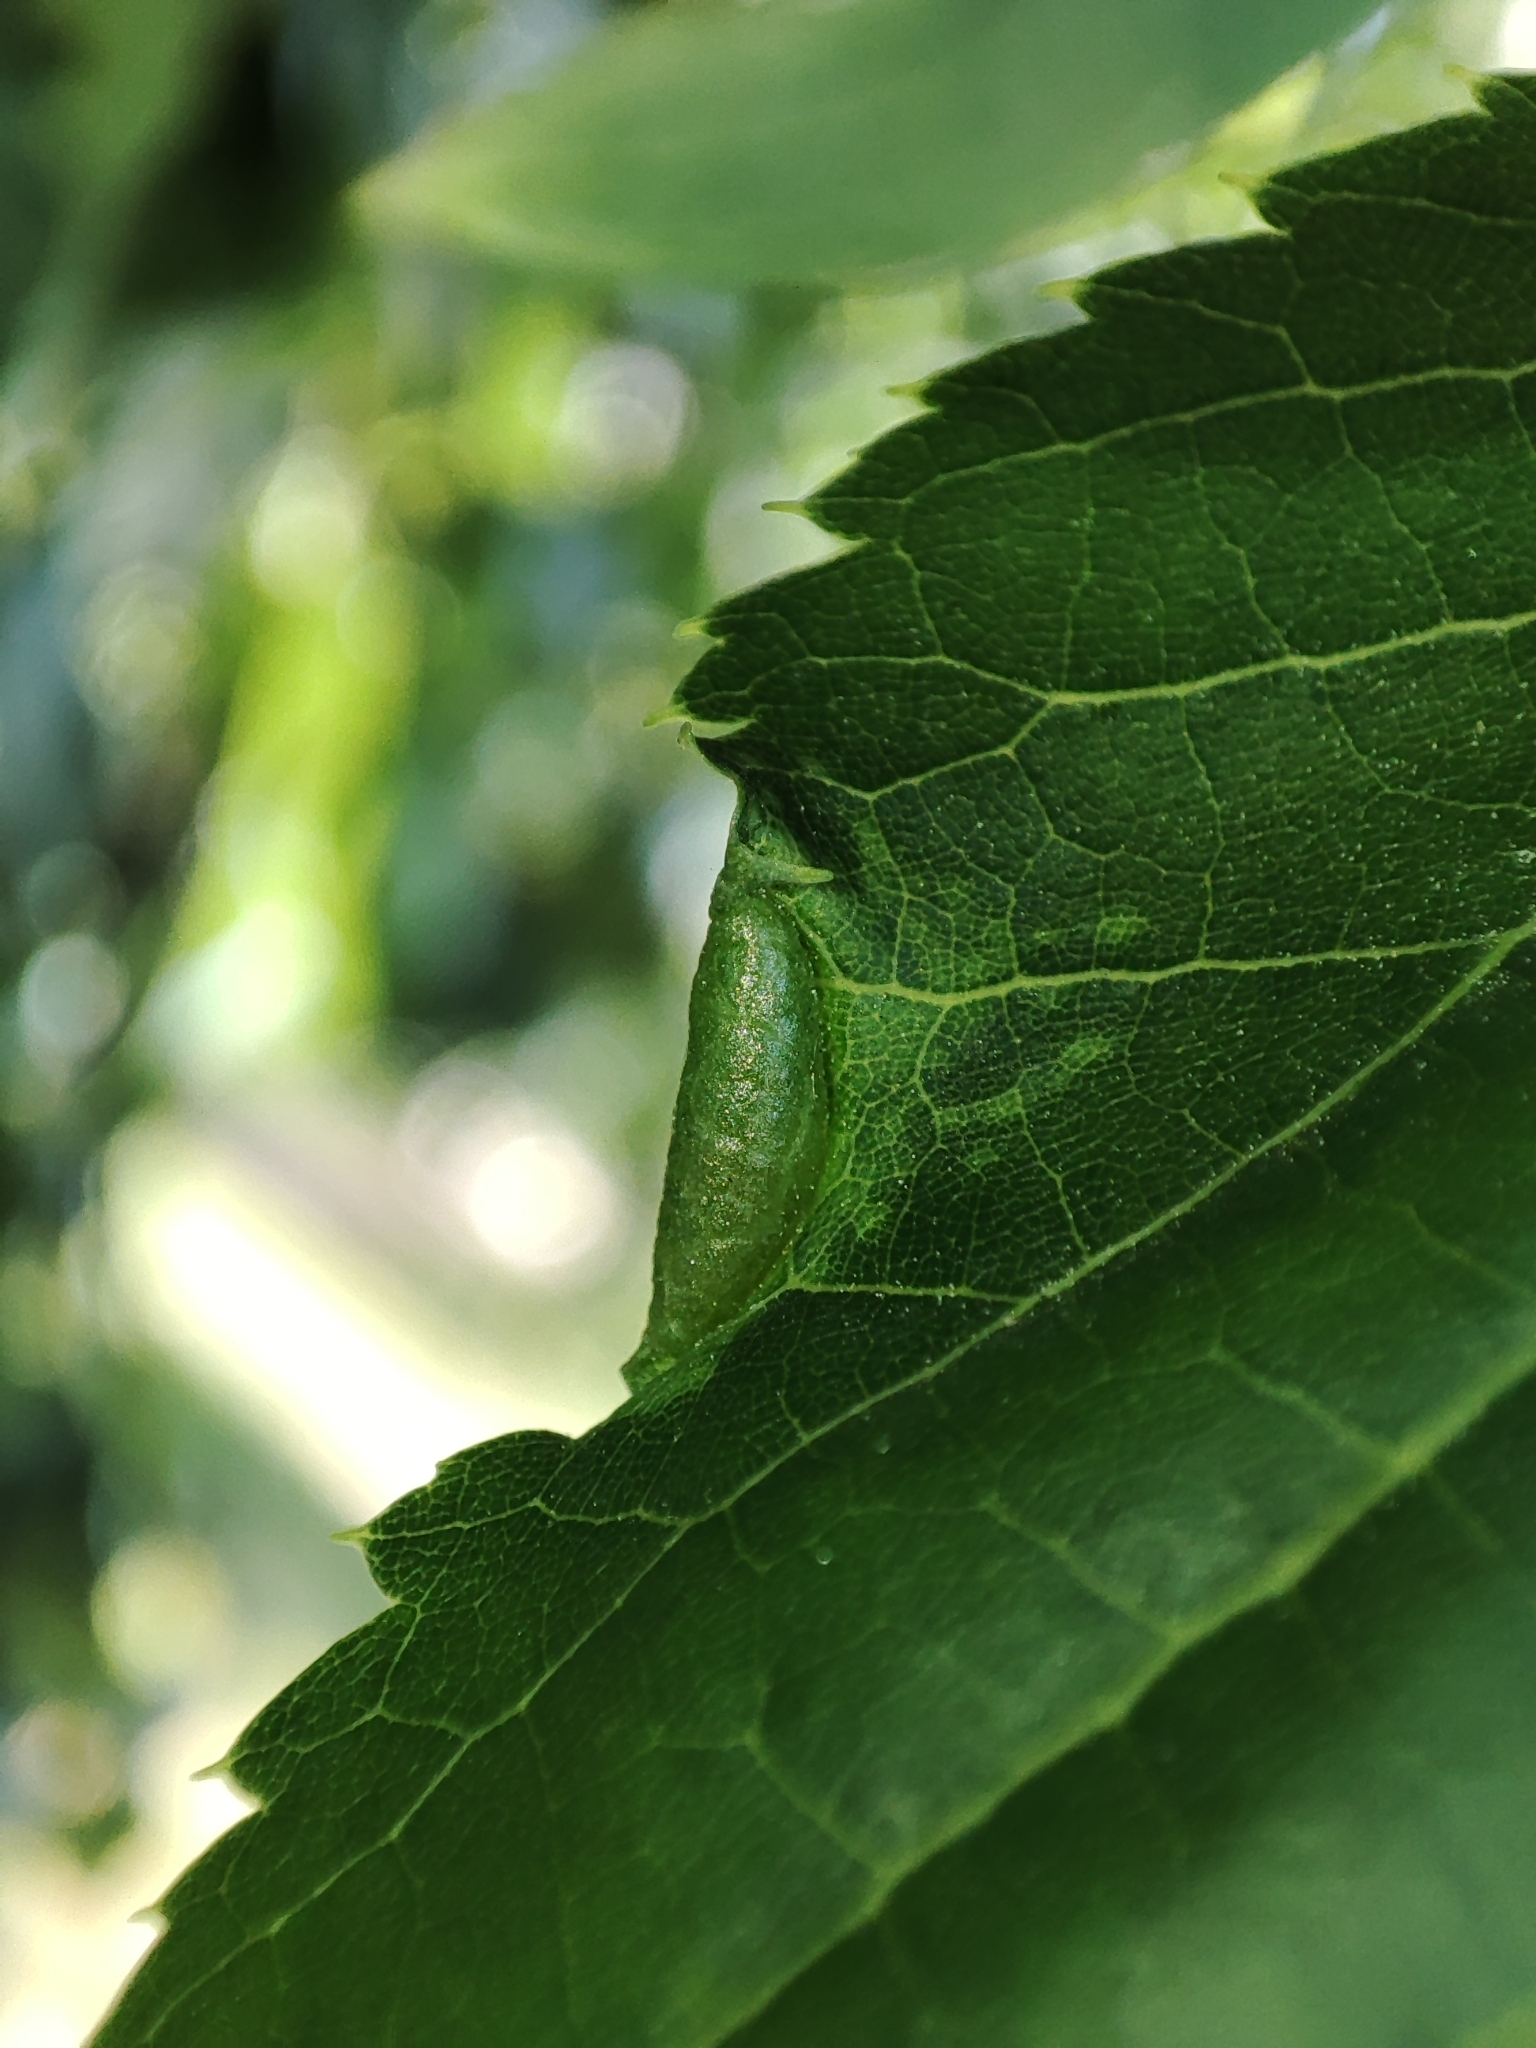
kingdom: Animalia
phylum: Arthropoda
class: Insecta
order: Diptera
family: Cecidomyiidae
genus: Dasineura
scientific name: Dasineura tiliae
